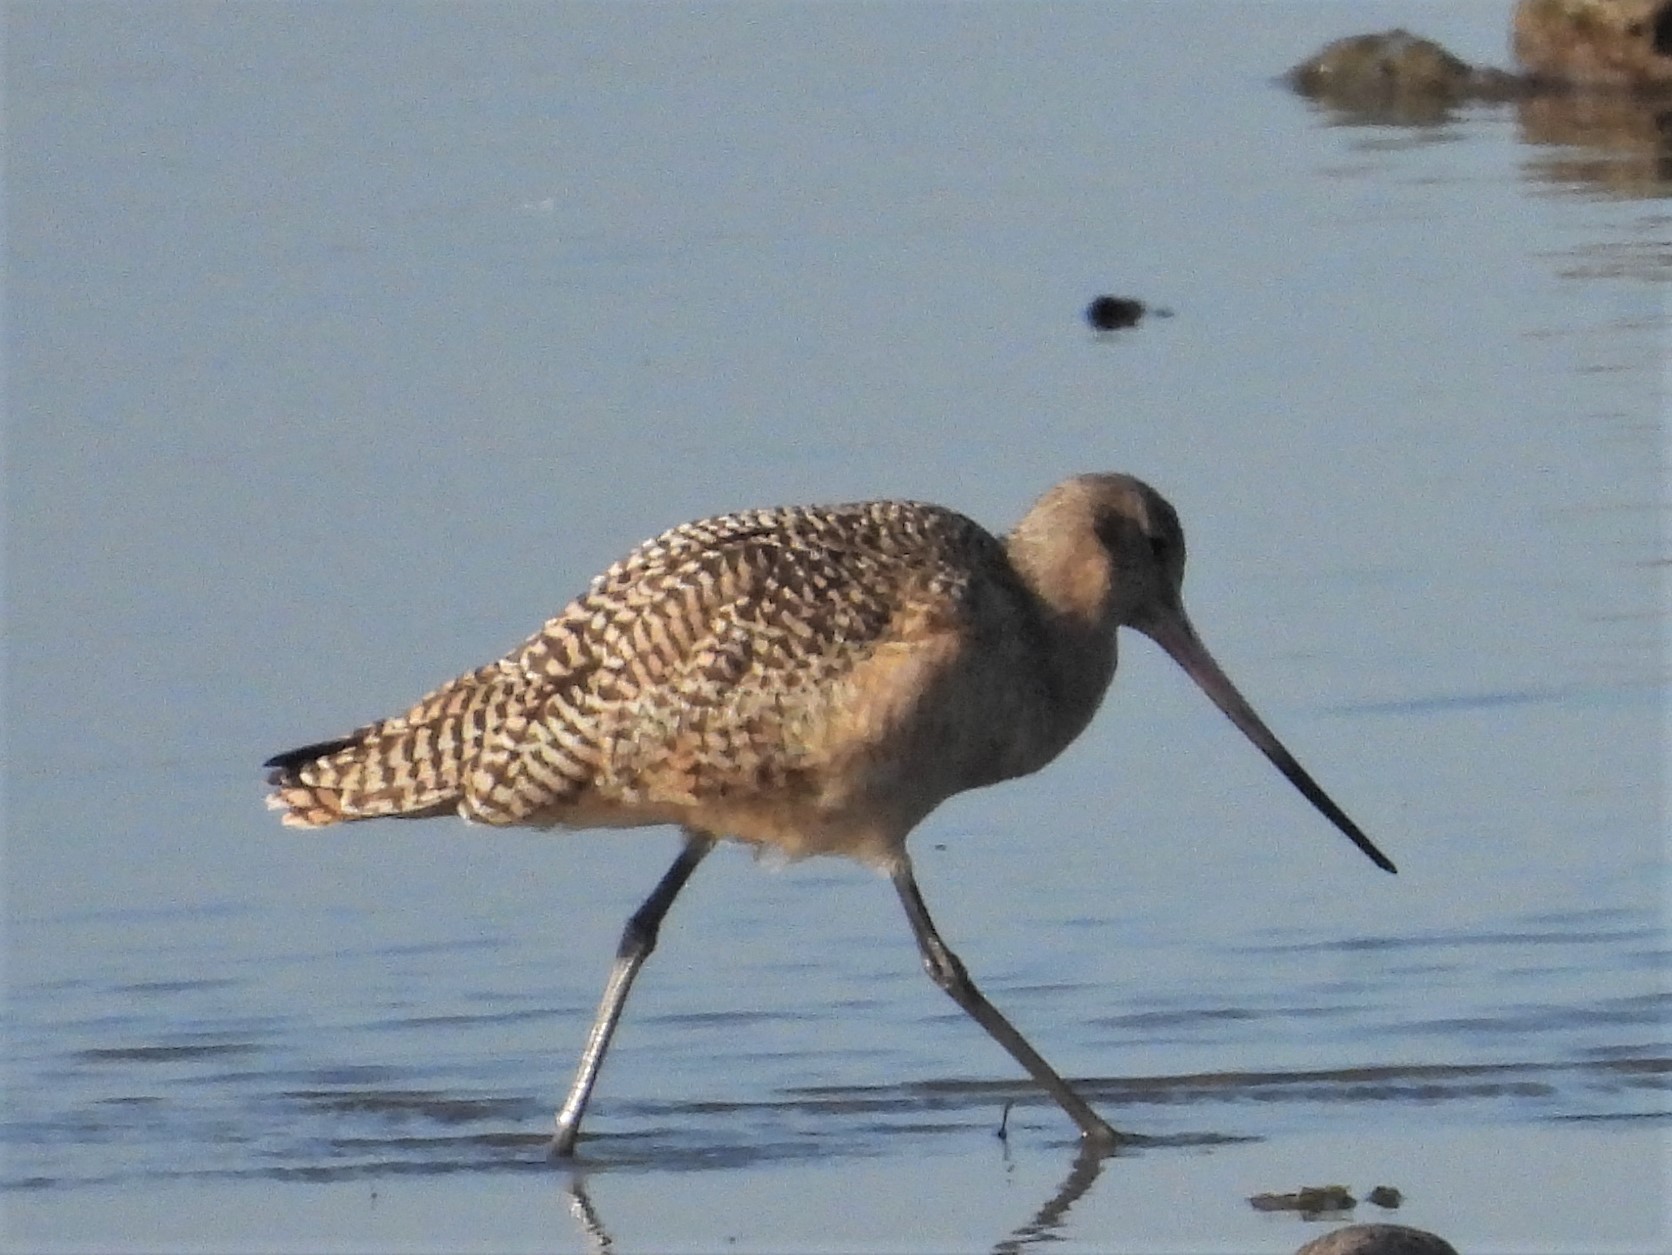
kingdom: Animalia
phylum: Chordata
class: Aves
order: Charadriiformes
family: Scolopacidae
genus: Limosa
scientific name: Limosa fedoa
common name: Marbled godwit
